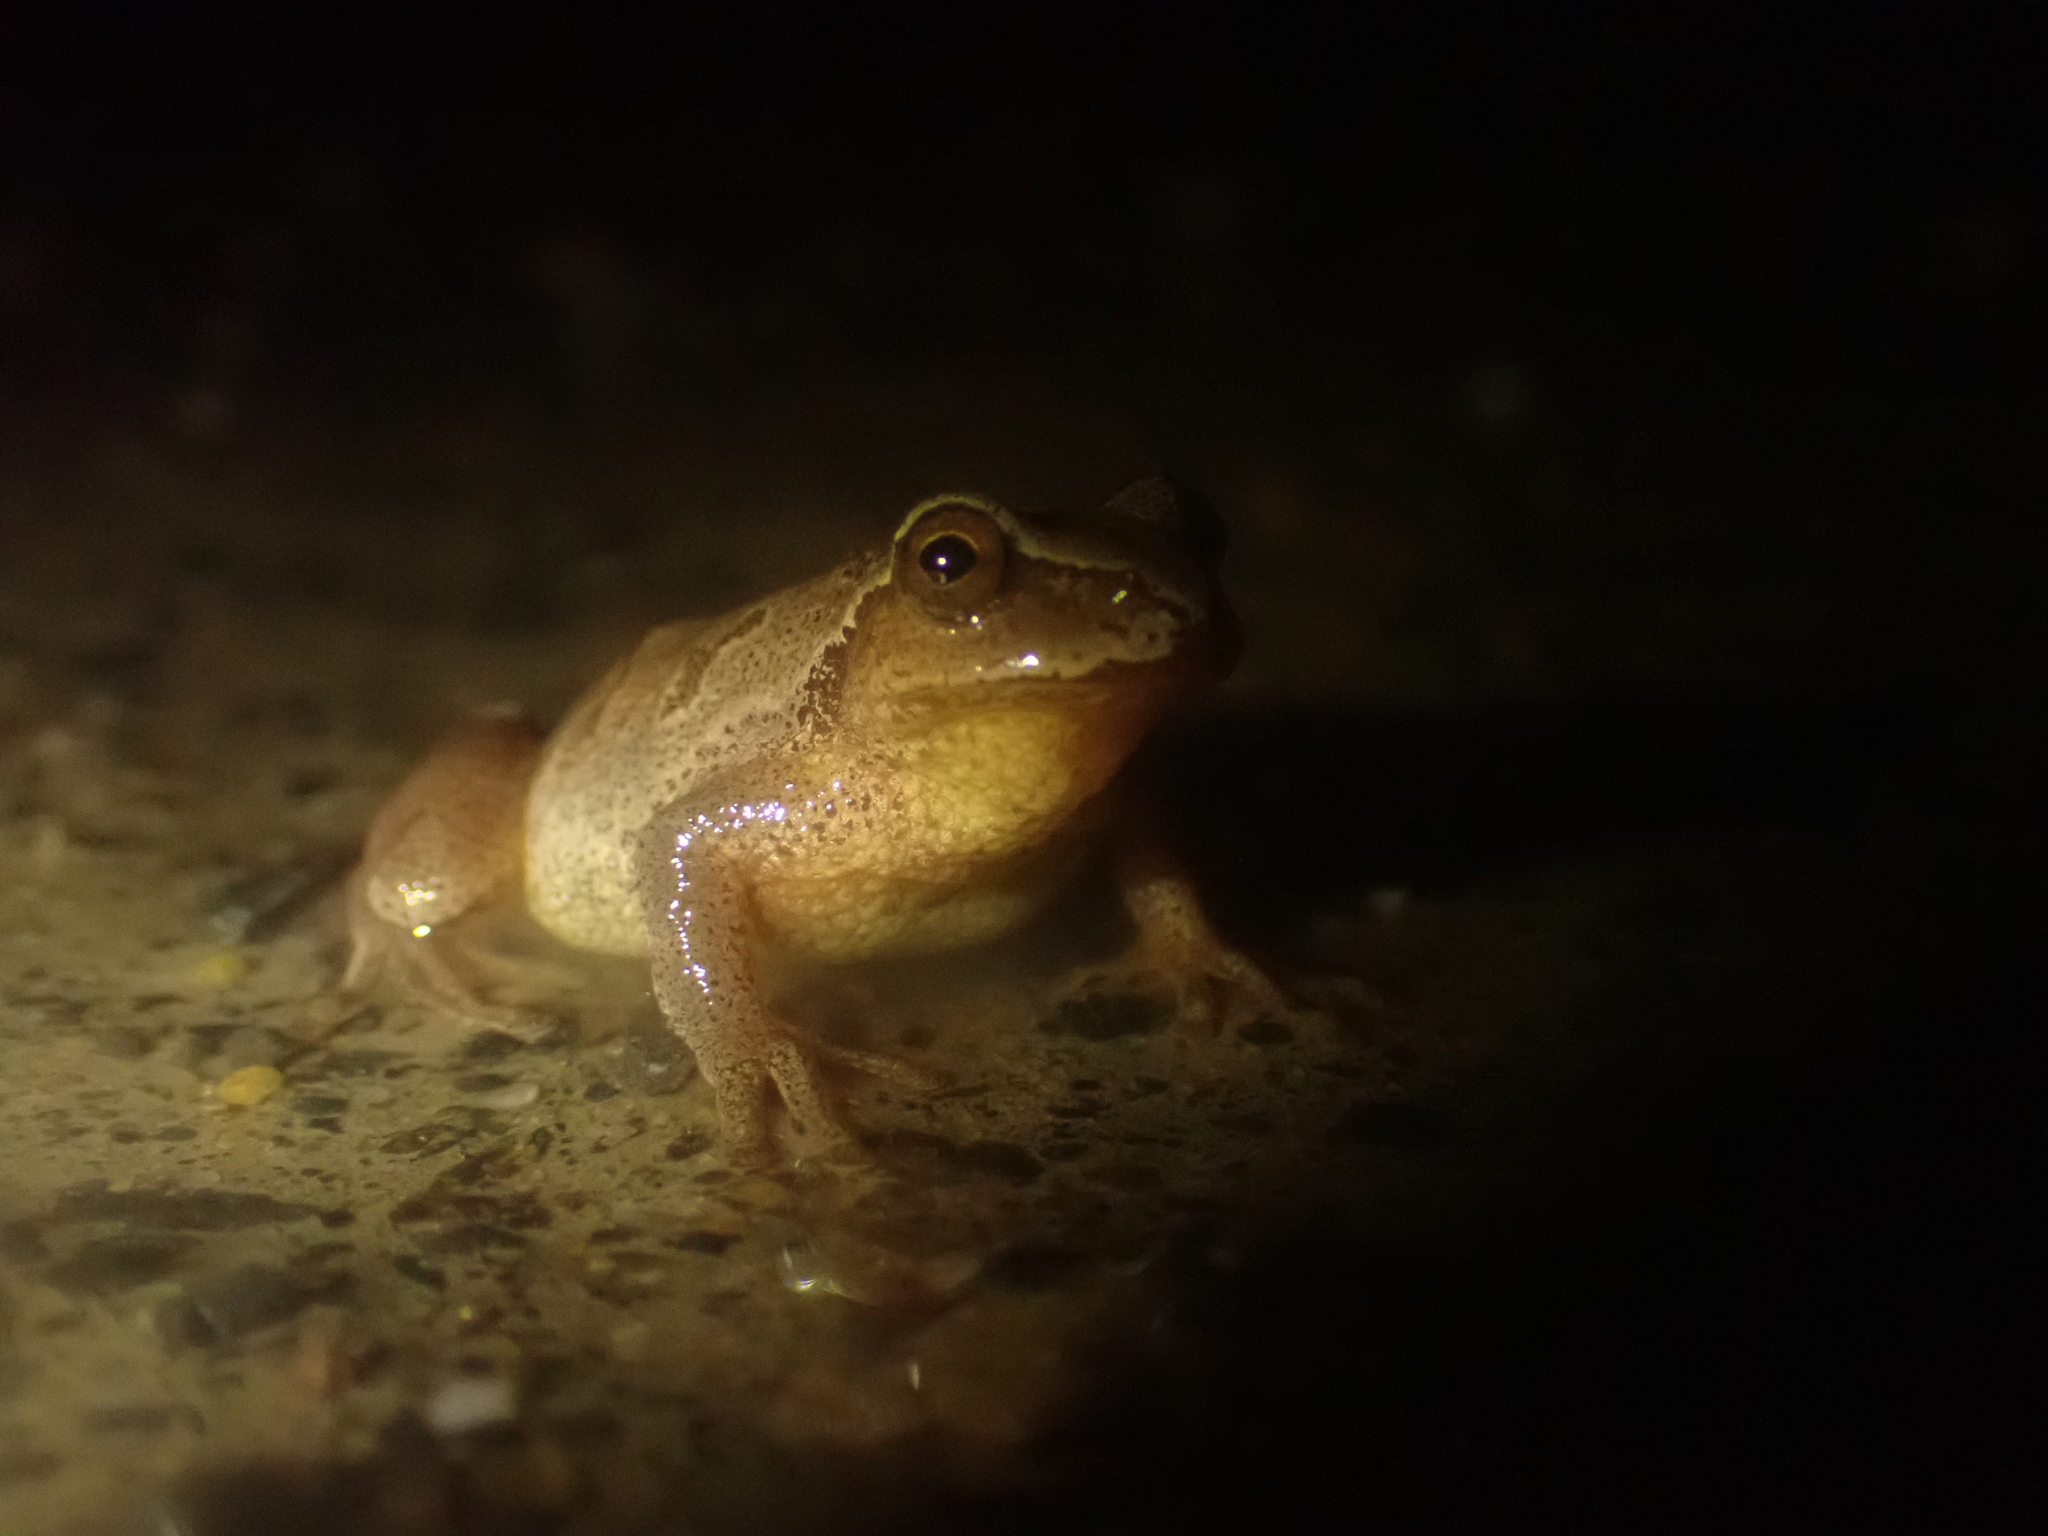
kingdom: Animalia
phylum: Chordata
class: Amphibia
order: Anura
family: Hylidae
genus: Pseudacris
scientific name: Pseudacris crucifer
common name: Spring peeper
